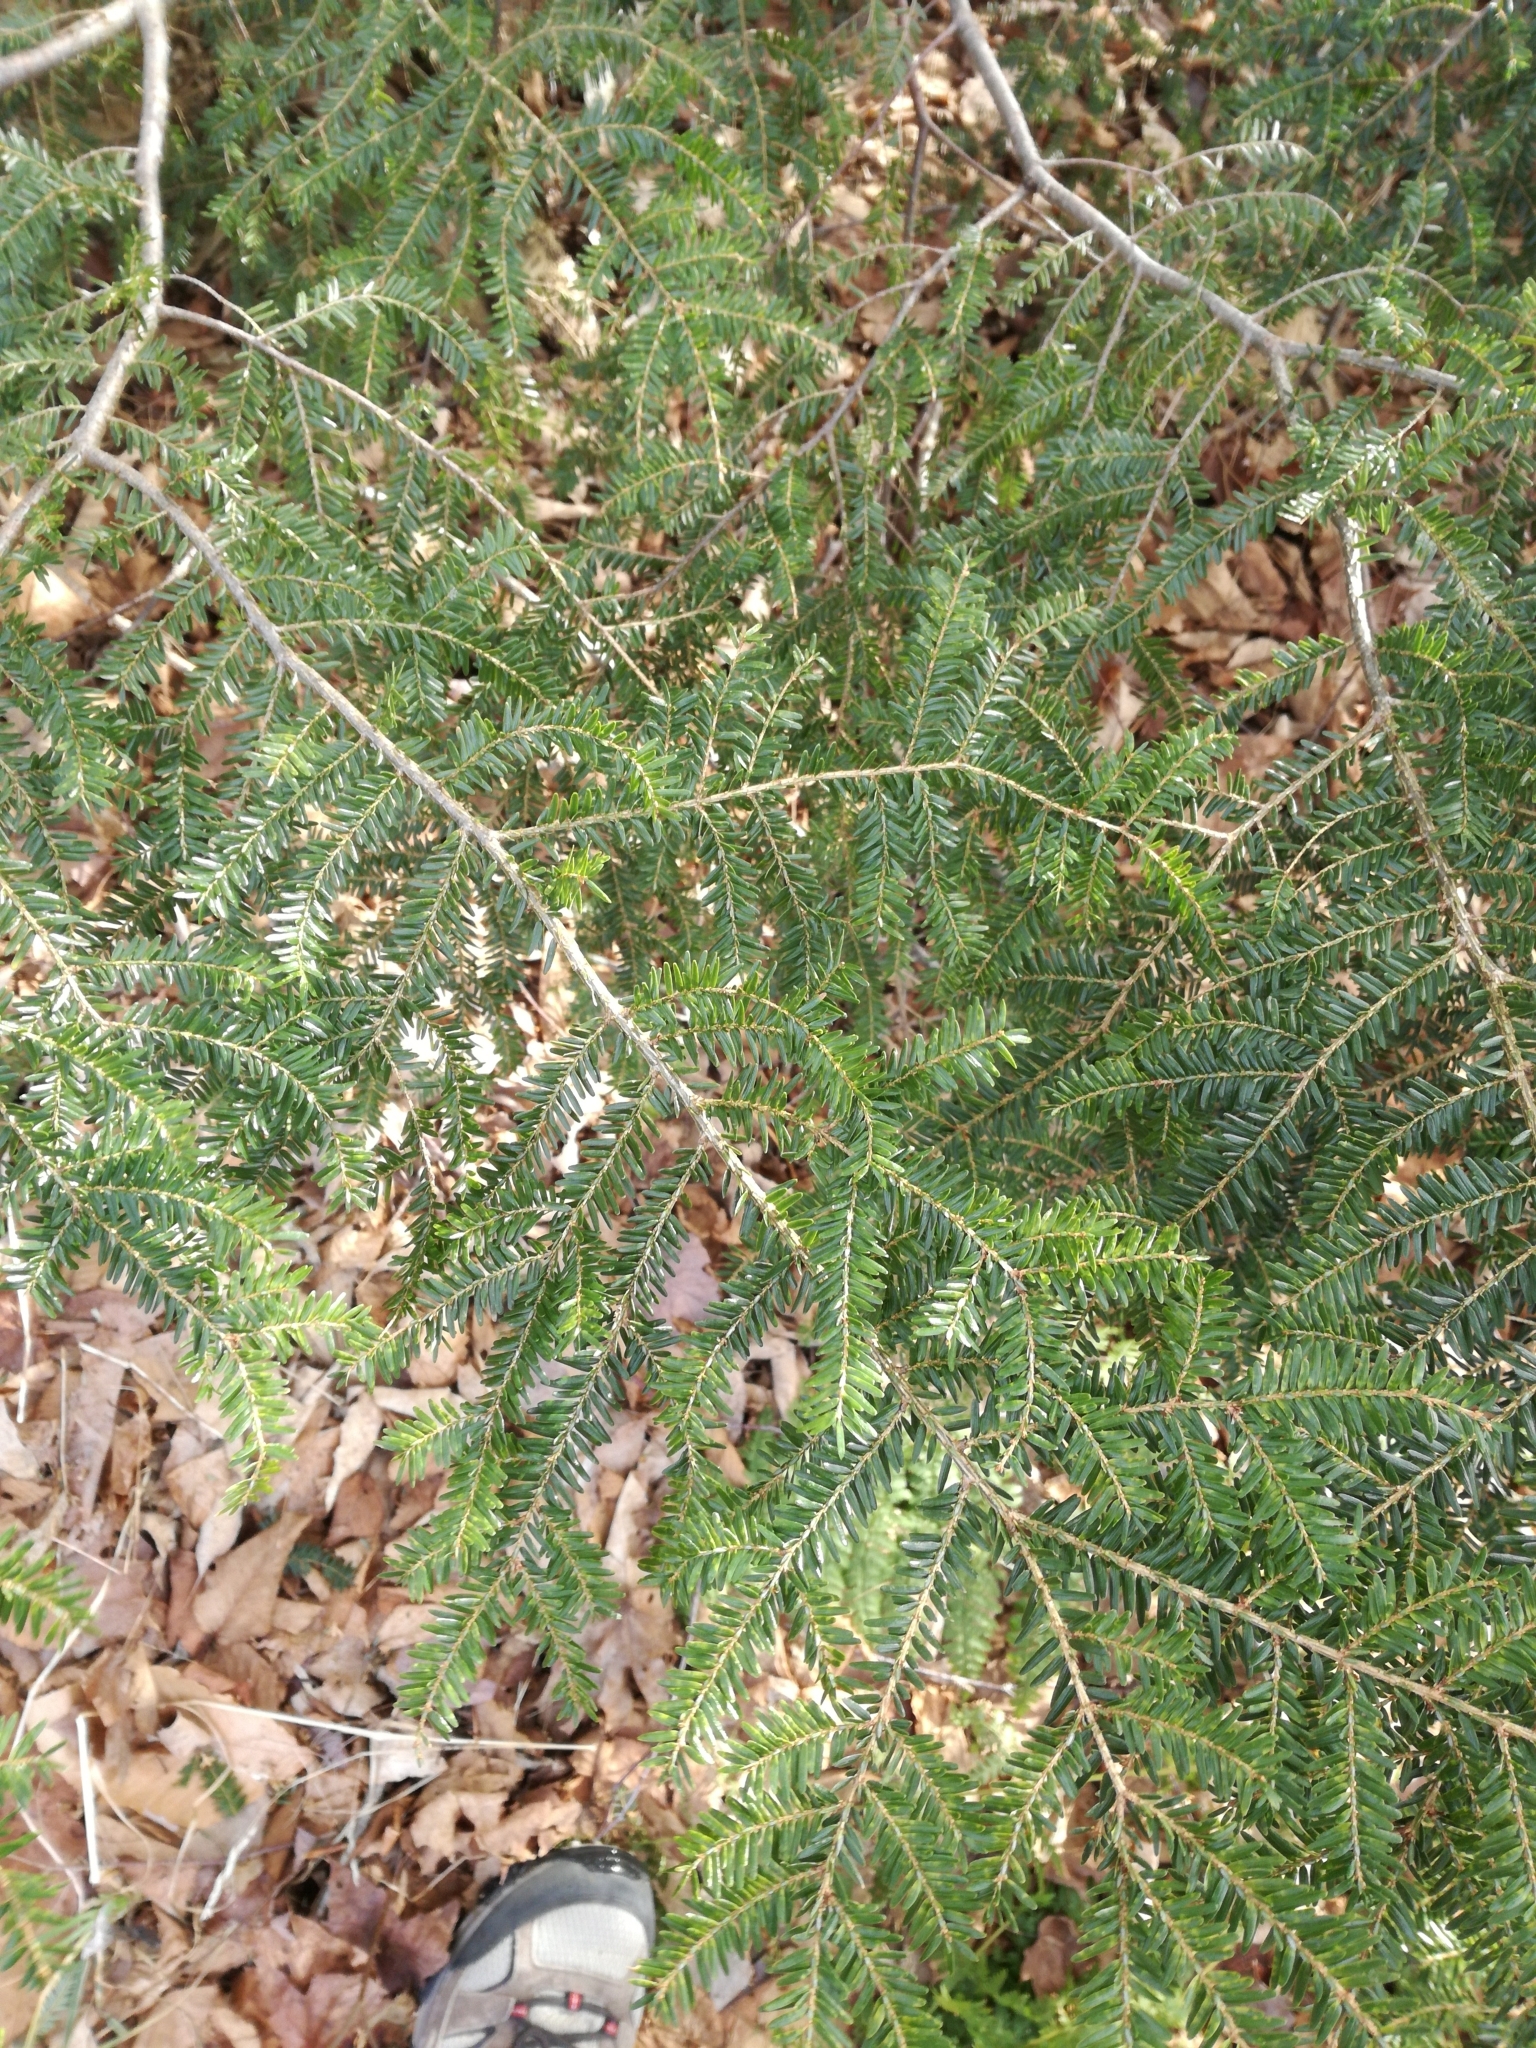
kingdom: Plantae
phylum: Tracheophyta
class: Pinopsida
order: Pinales
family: Pinaceae
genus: Tsuga
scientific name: Tsuga canadensis
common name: Eastern hemlock
